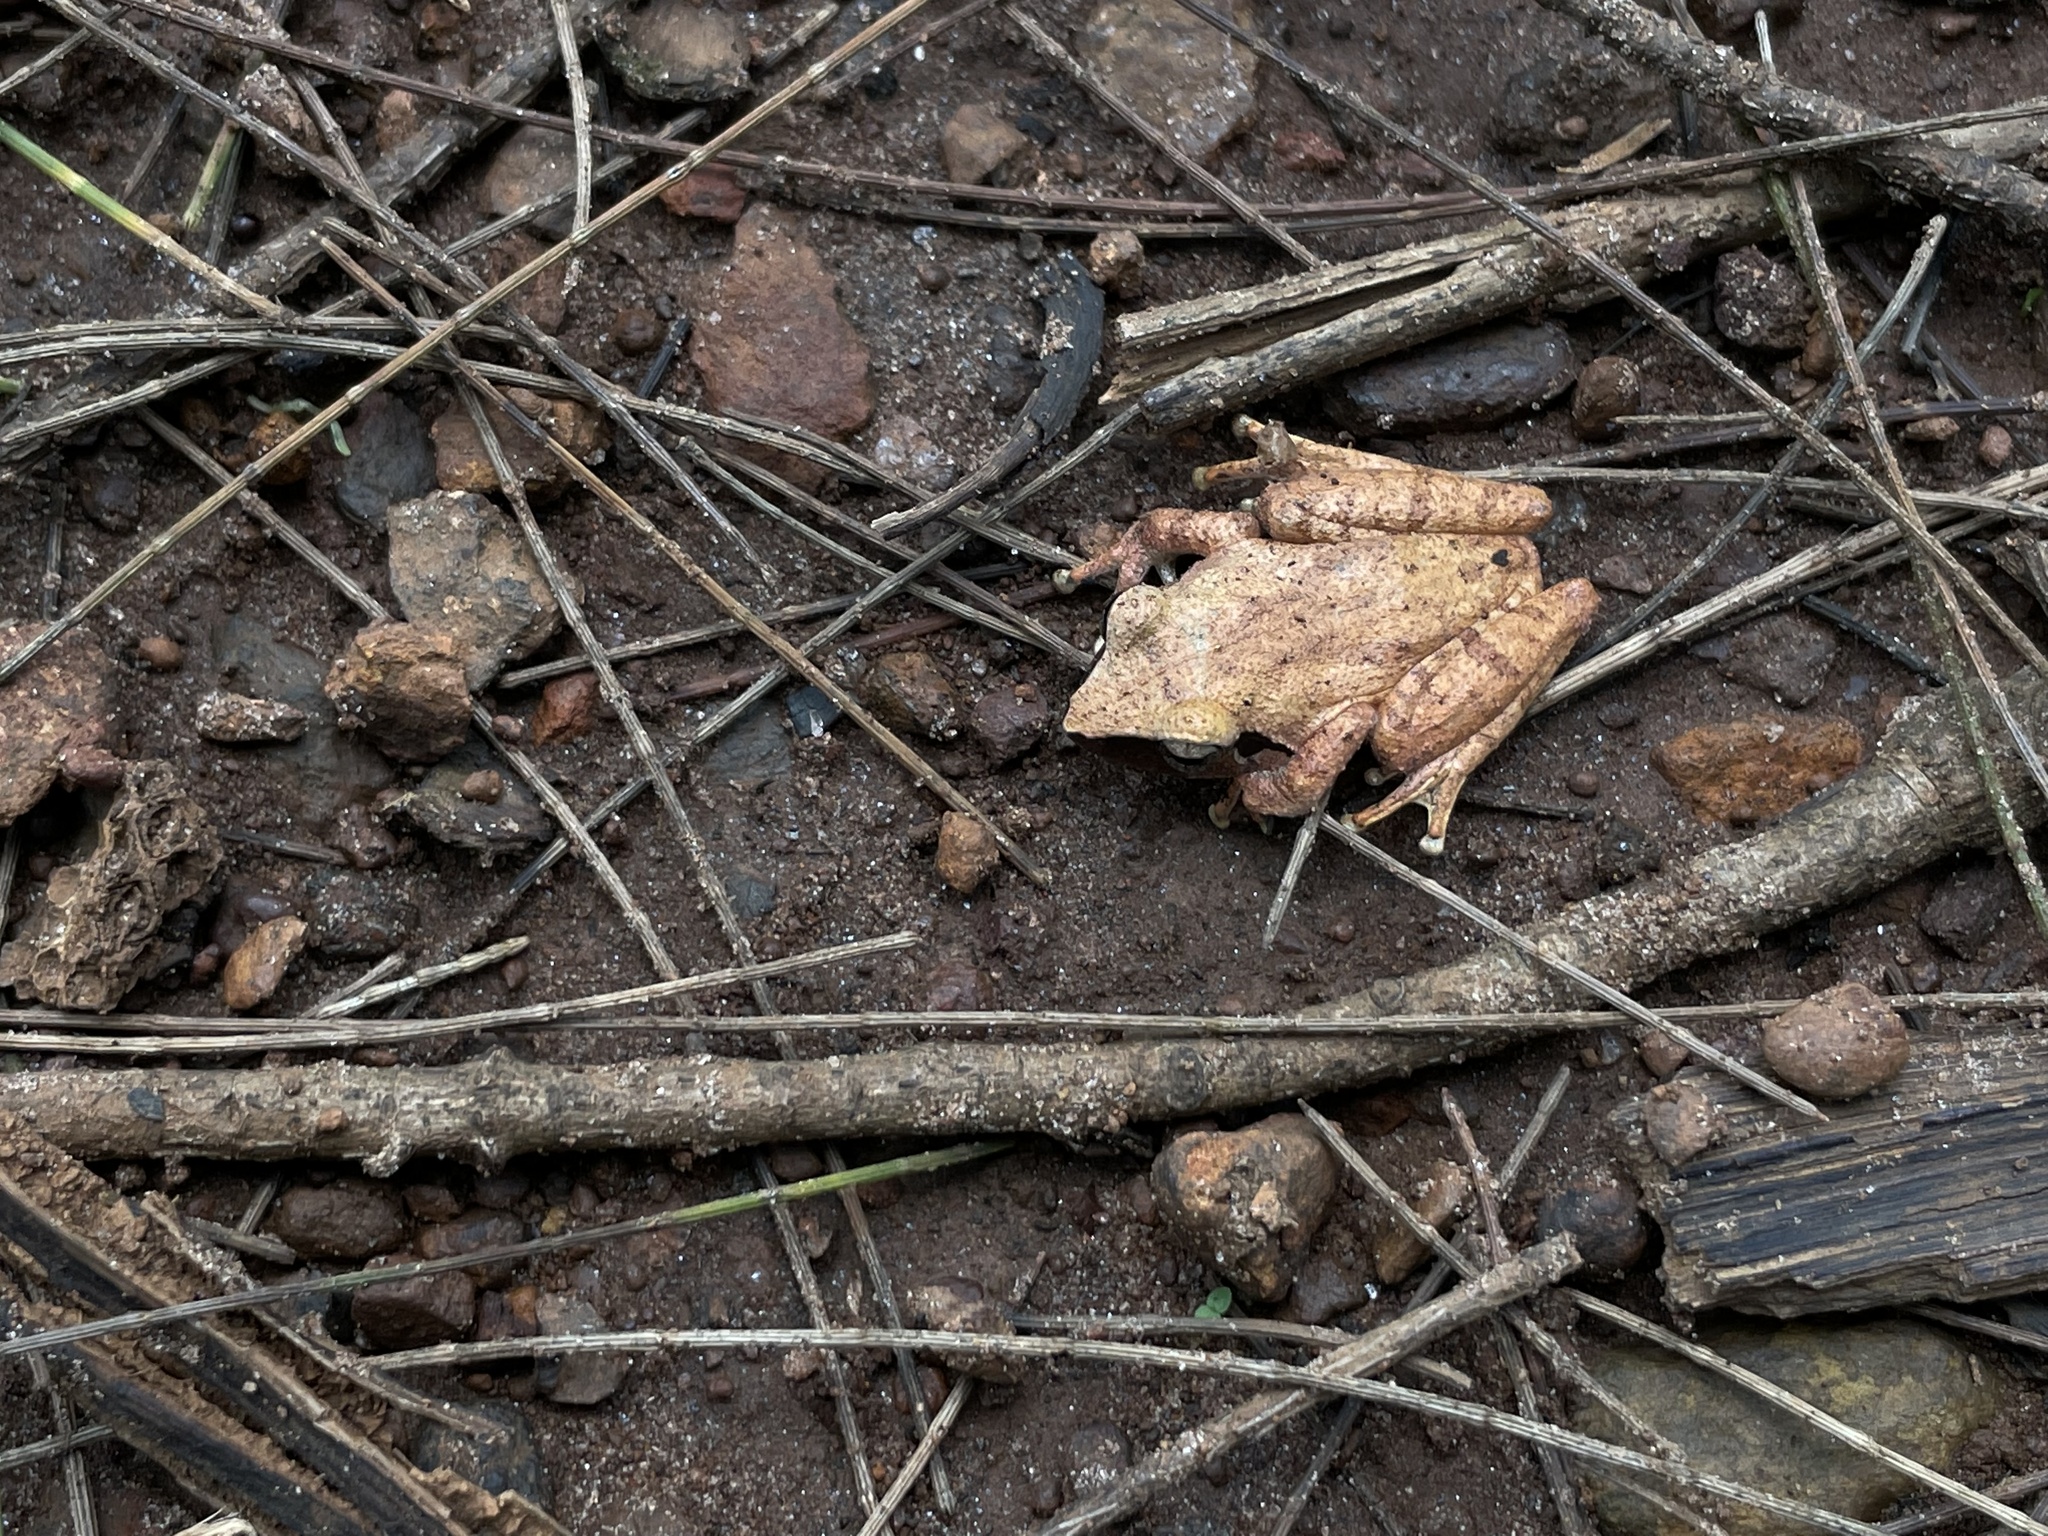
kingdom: Animalia
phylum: Chordata
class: Amphibia
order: Anura
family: Rhacophoridae
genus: Pseudophilautus
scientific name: Pseudophilautus amboli
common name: Amboli bush frog
